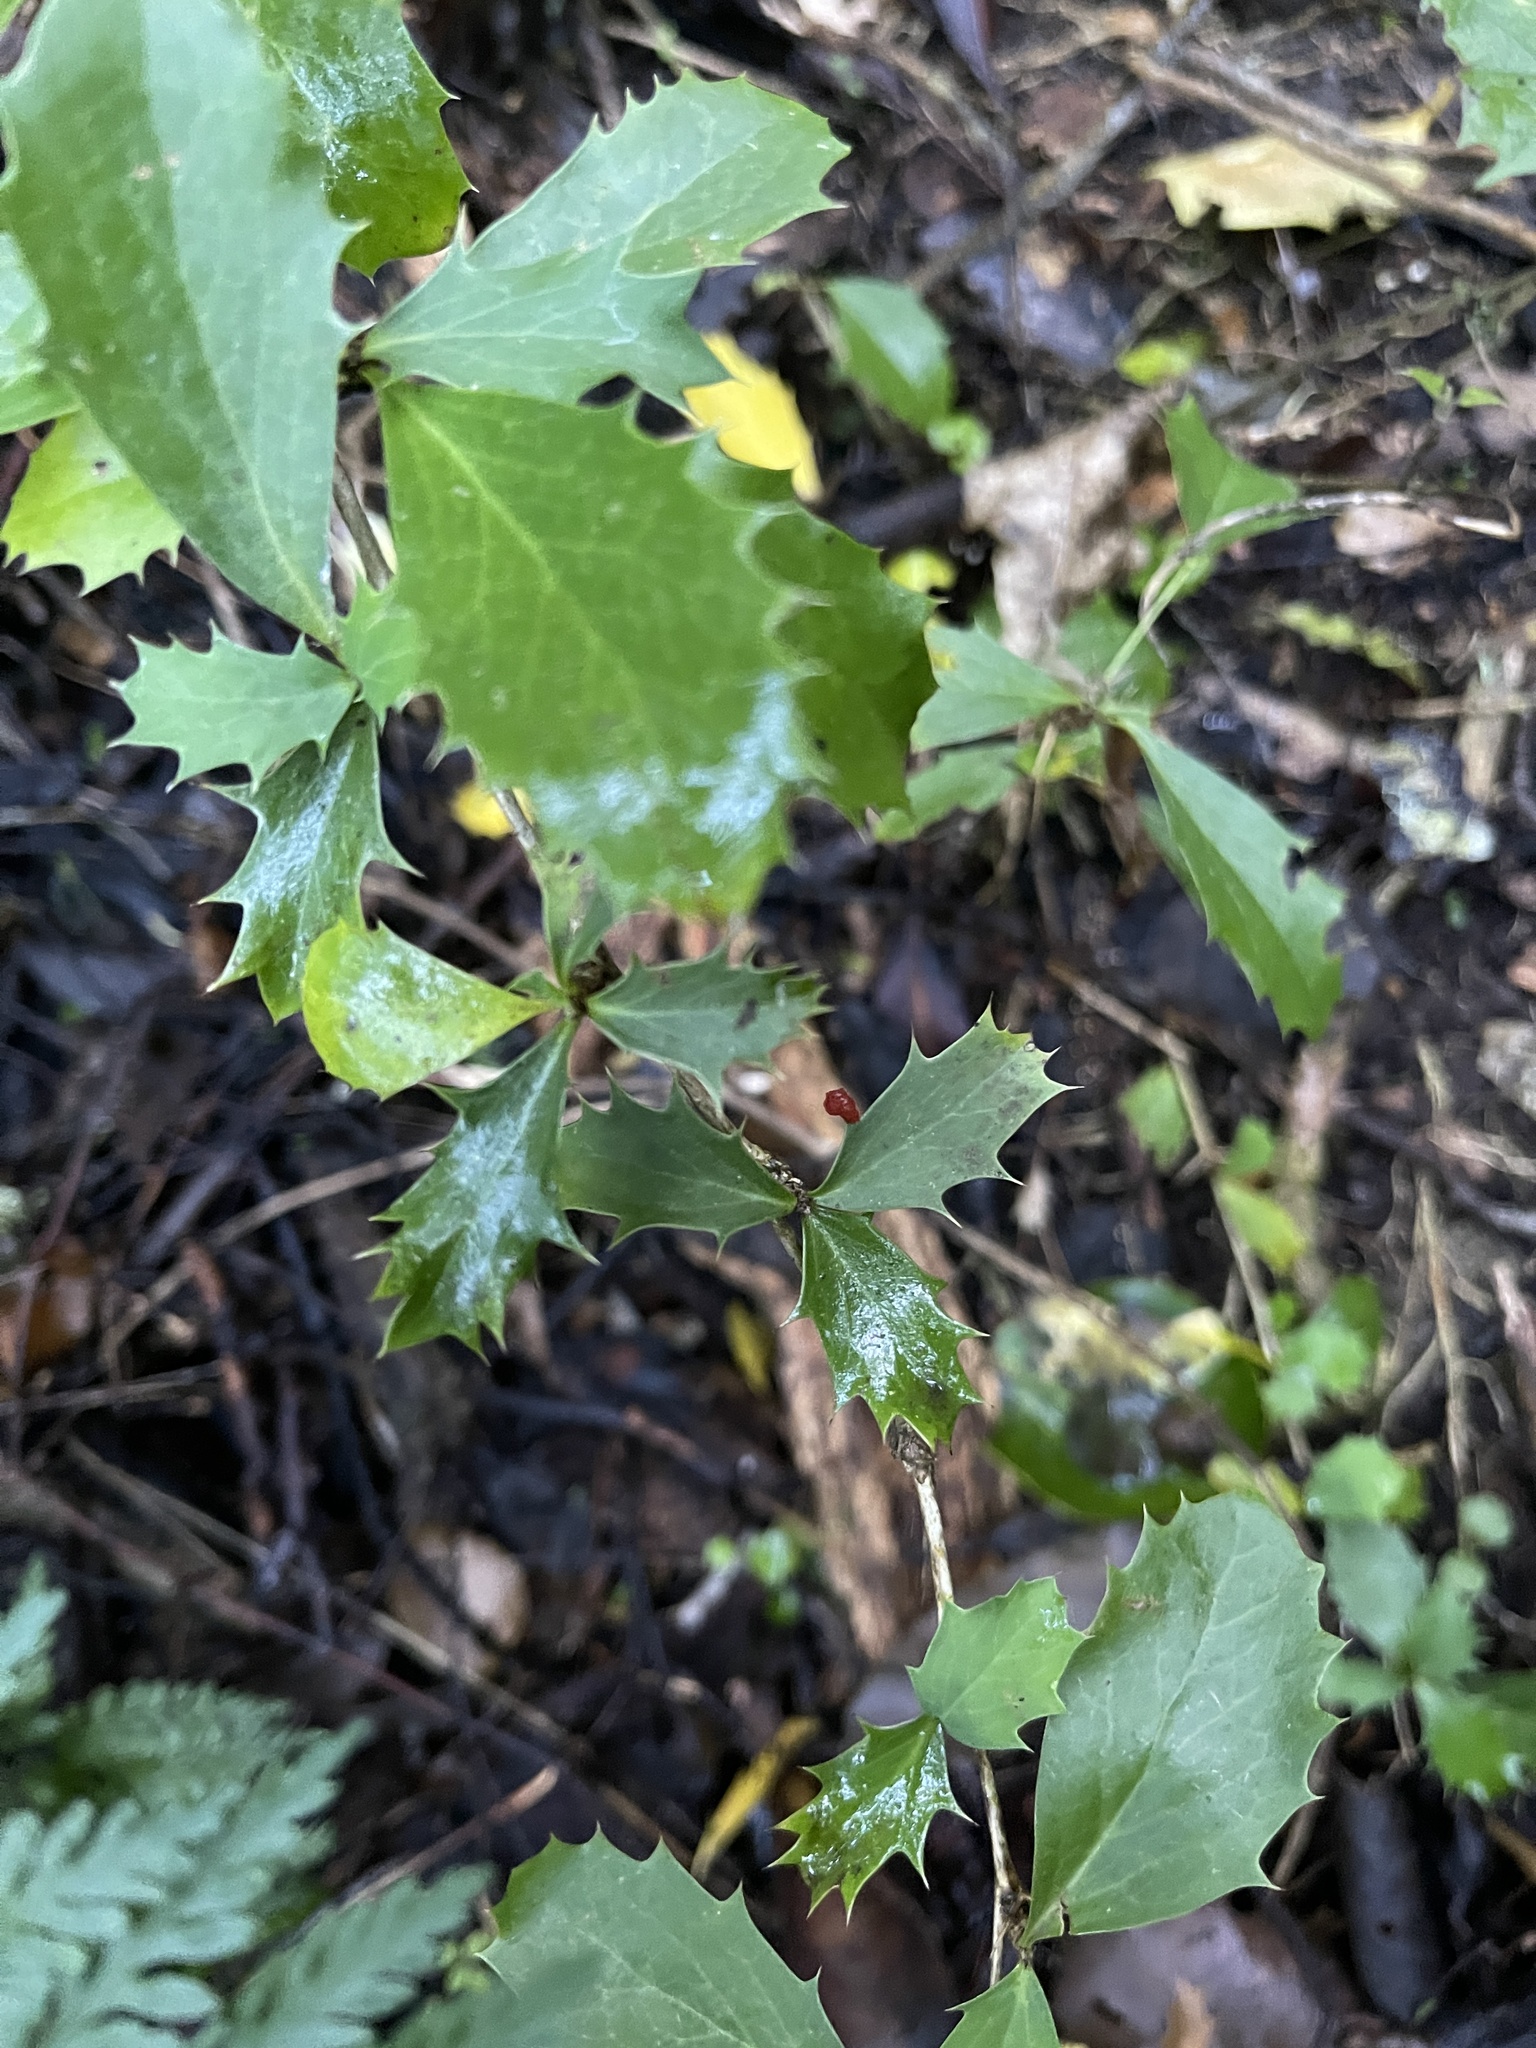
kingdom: Plantae
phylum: Tracheophyta
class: Magnoliopsida
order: Ranunculales
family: Berberidaceae
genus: Berberis
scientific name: Berberis glaucocarpa
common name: Great barberry
